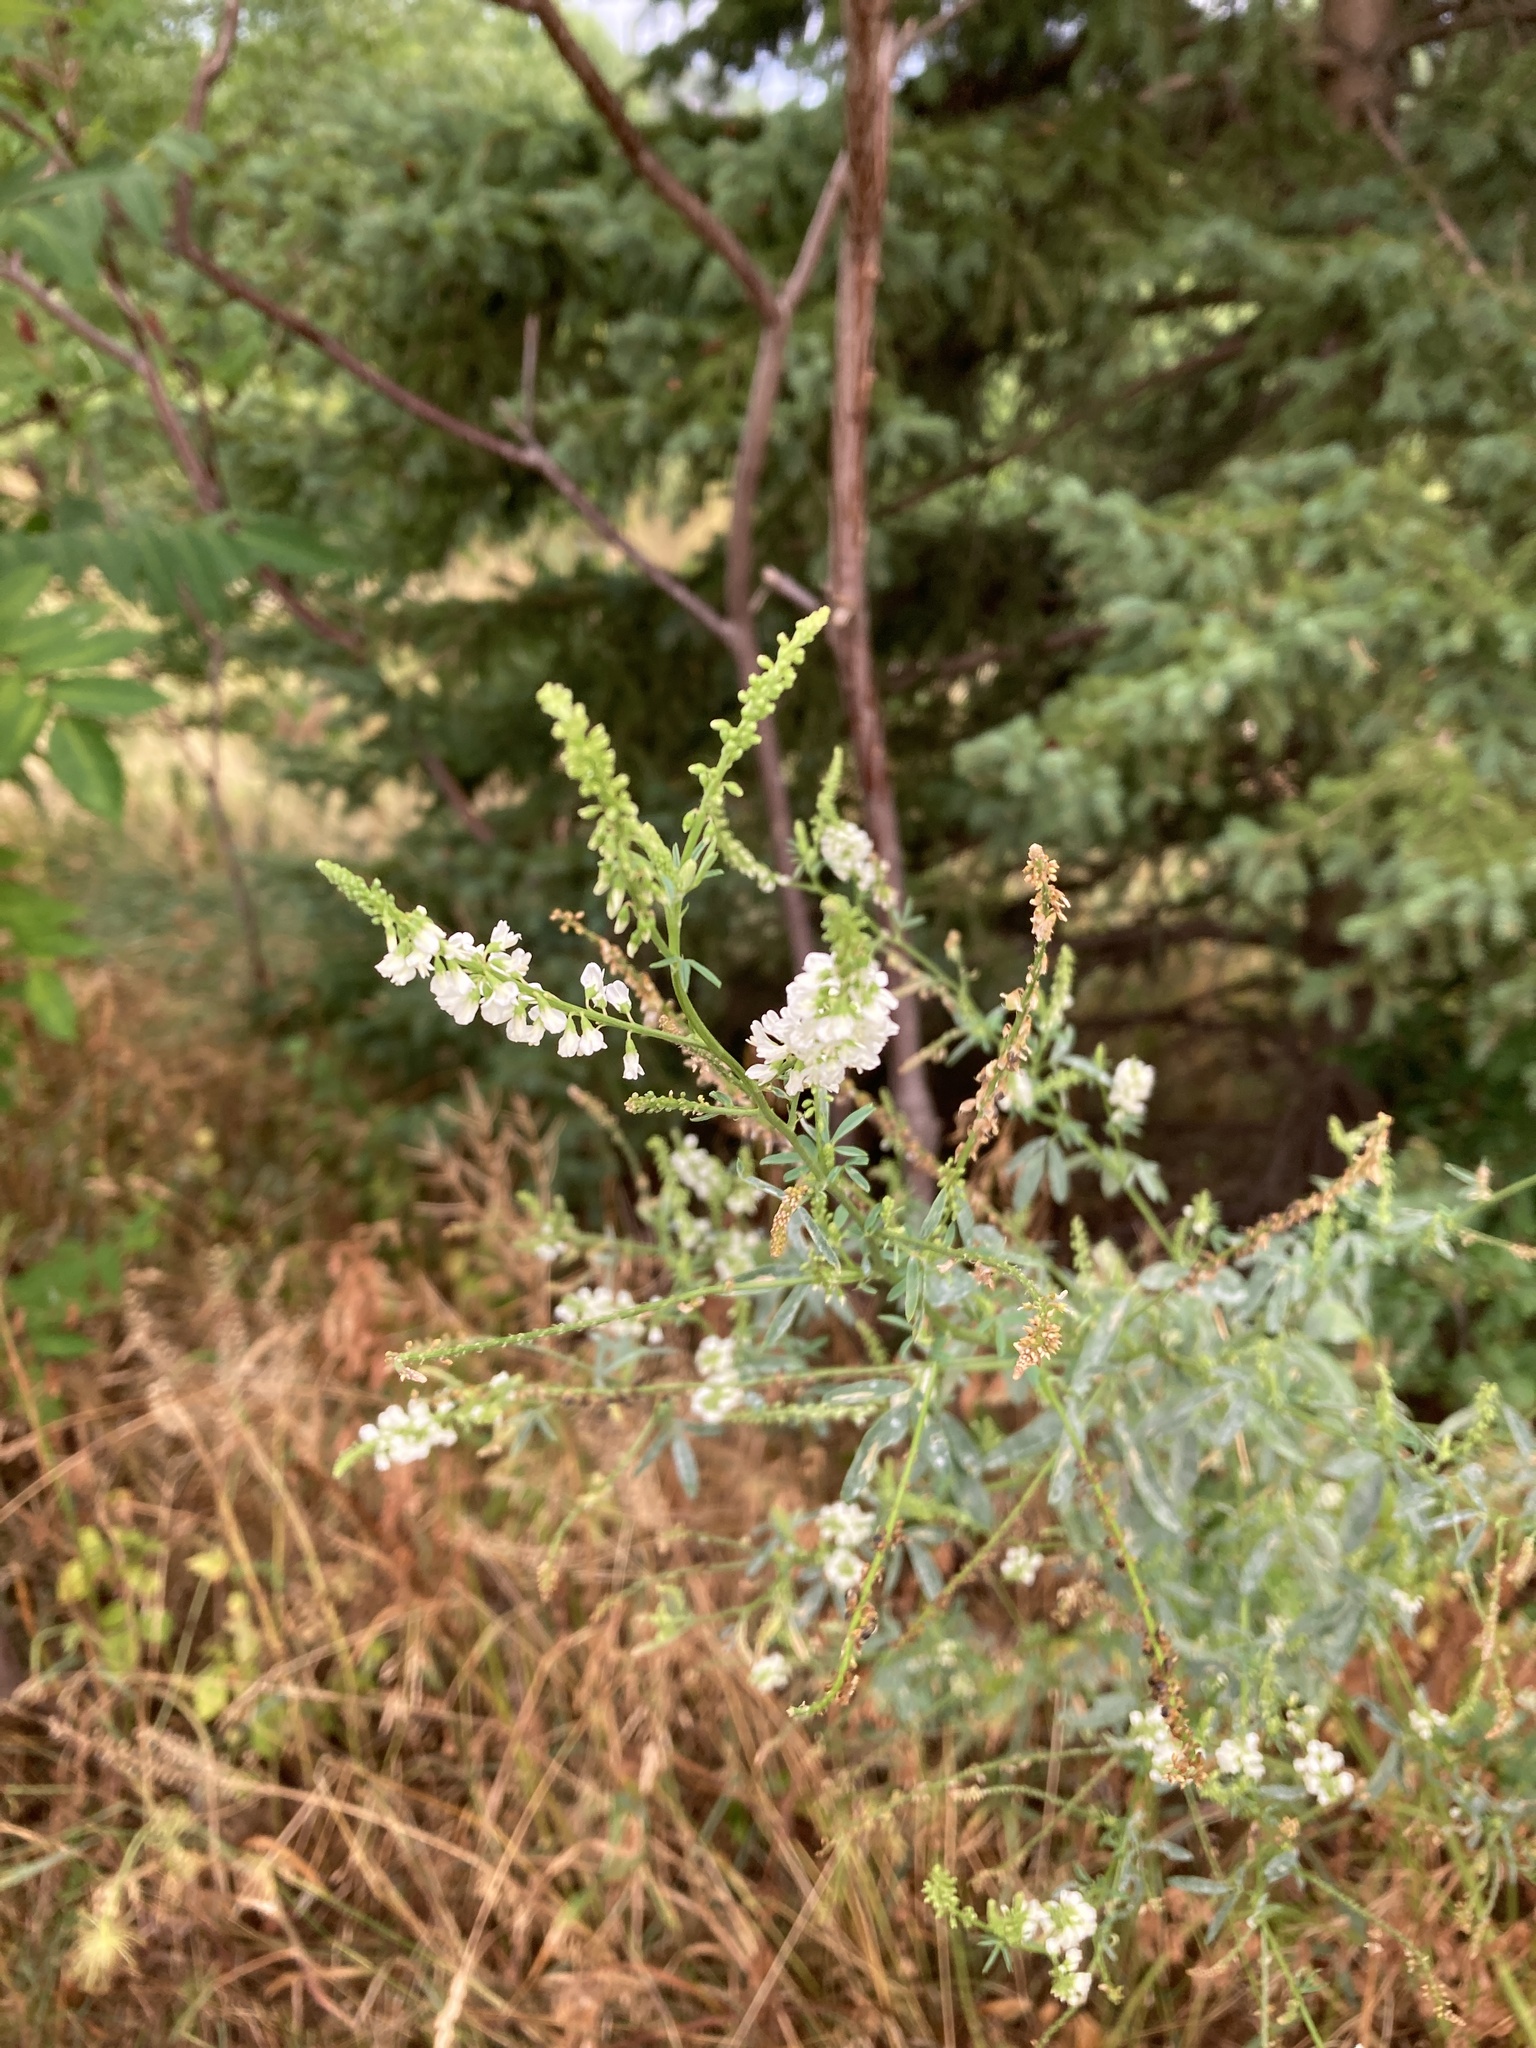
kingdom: Plantae
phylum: Tracheophyta
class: Magnoliopsida
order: Fabales
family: Fabaceae
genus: Melilotus
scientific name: Melilotus albus
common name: White melilot
